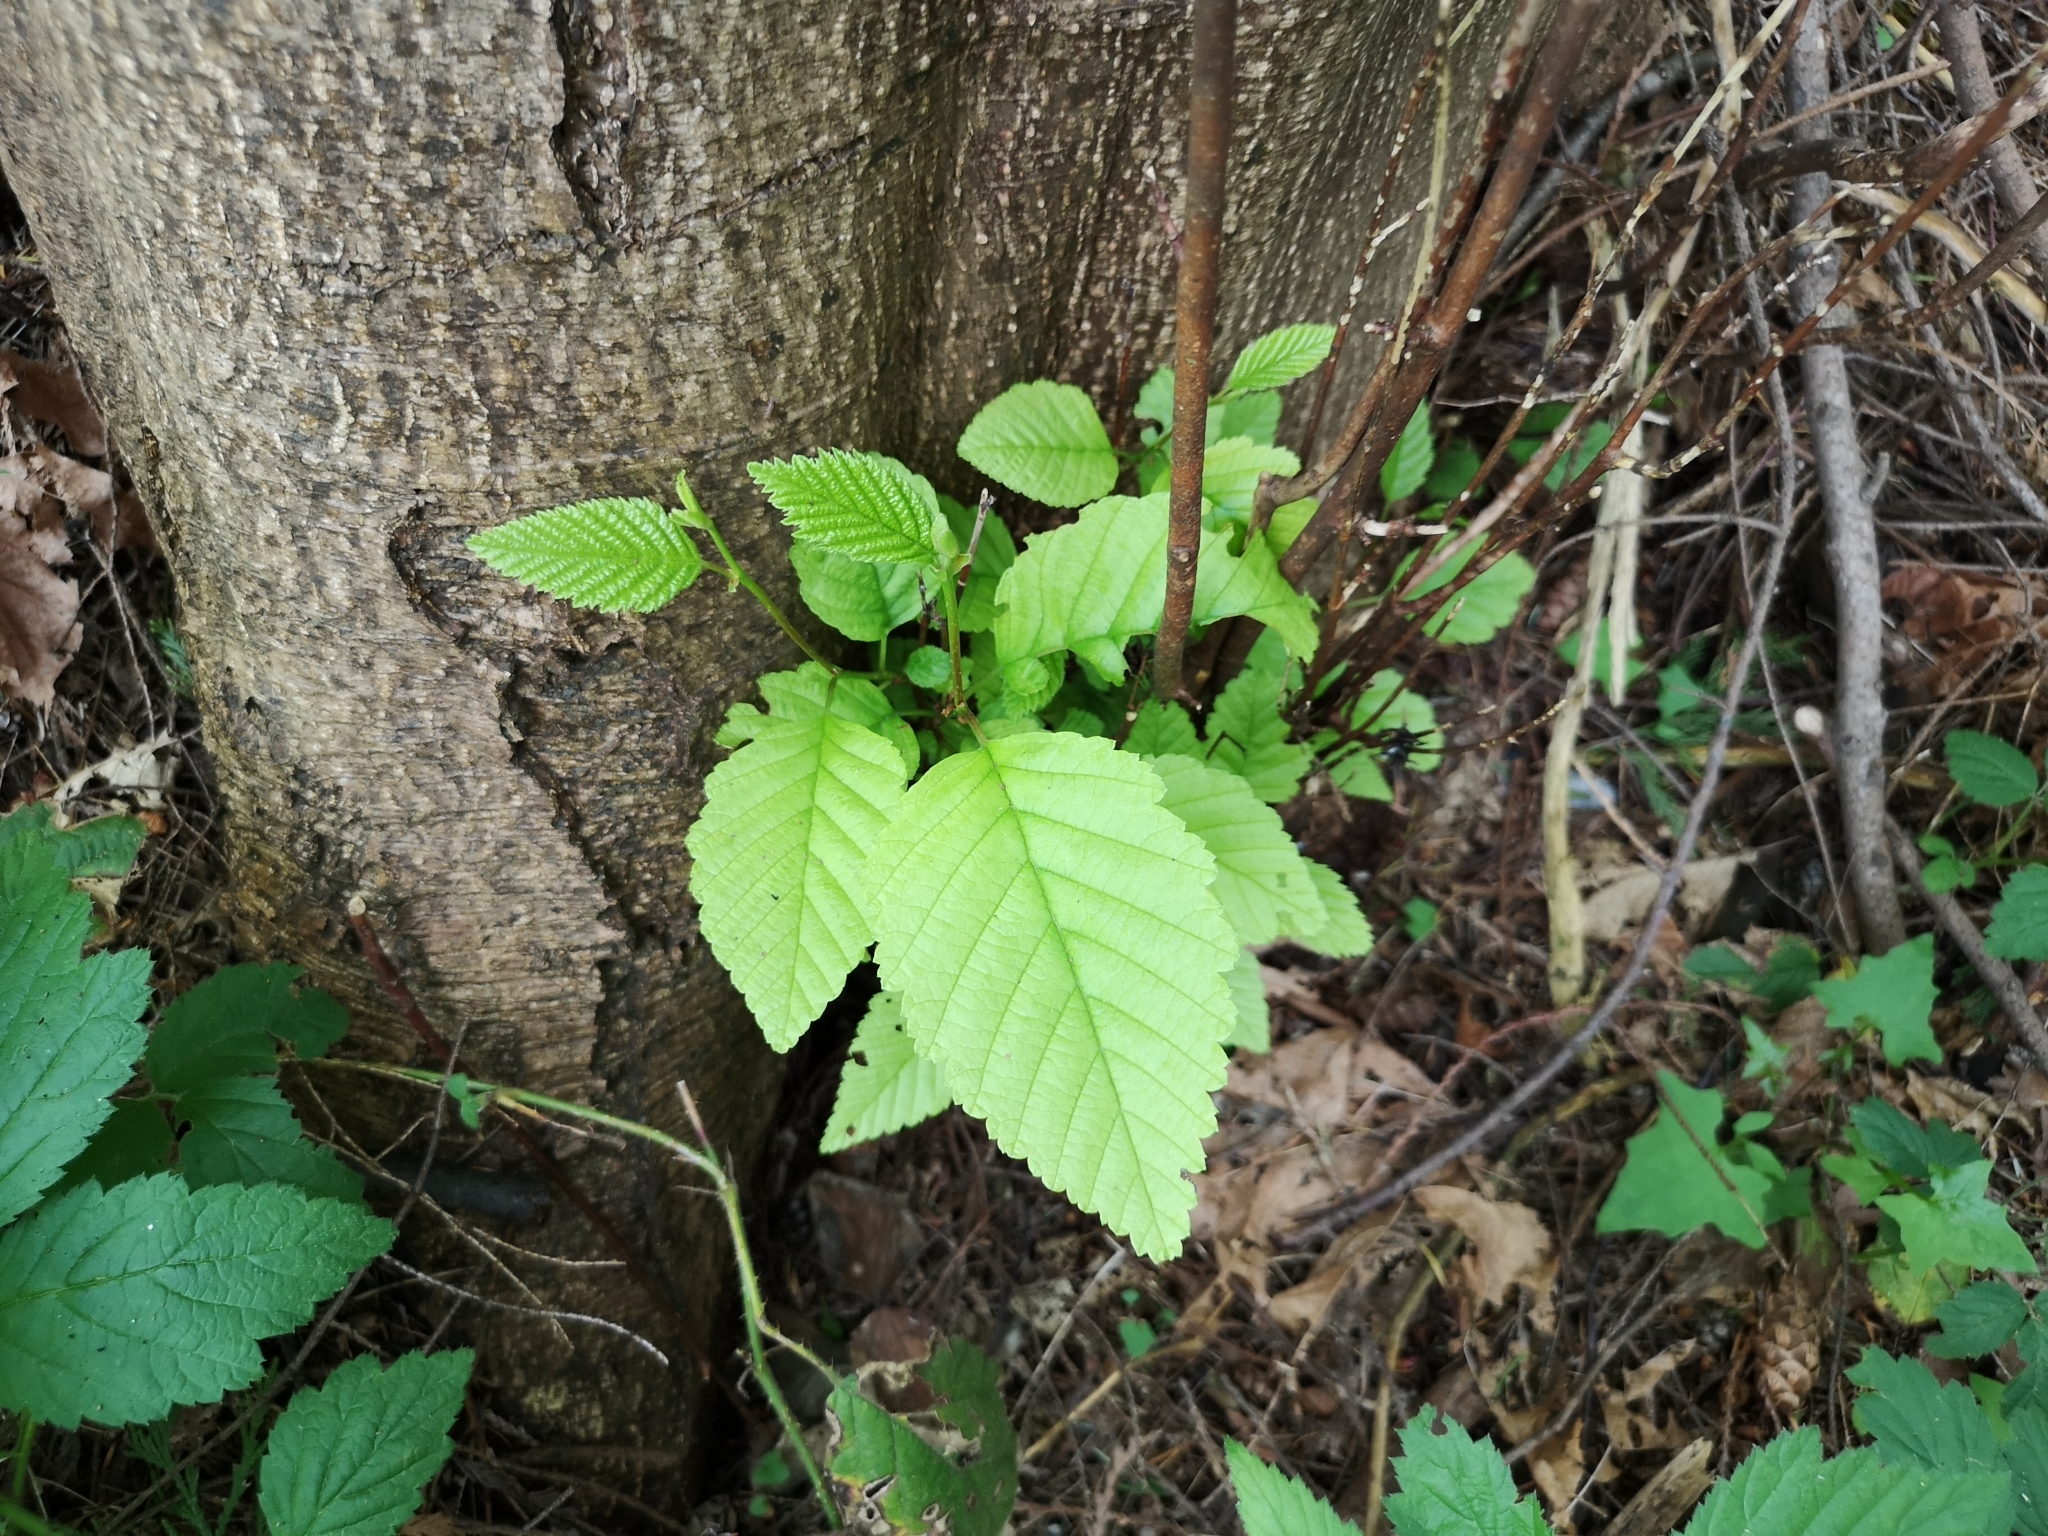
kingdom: Plantae
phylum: Tracheophyta
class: Magnoliopsida
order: Fagales
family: Betulaceae
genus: Alnus
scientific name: Alnus rubra
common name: Red alder
